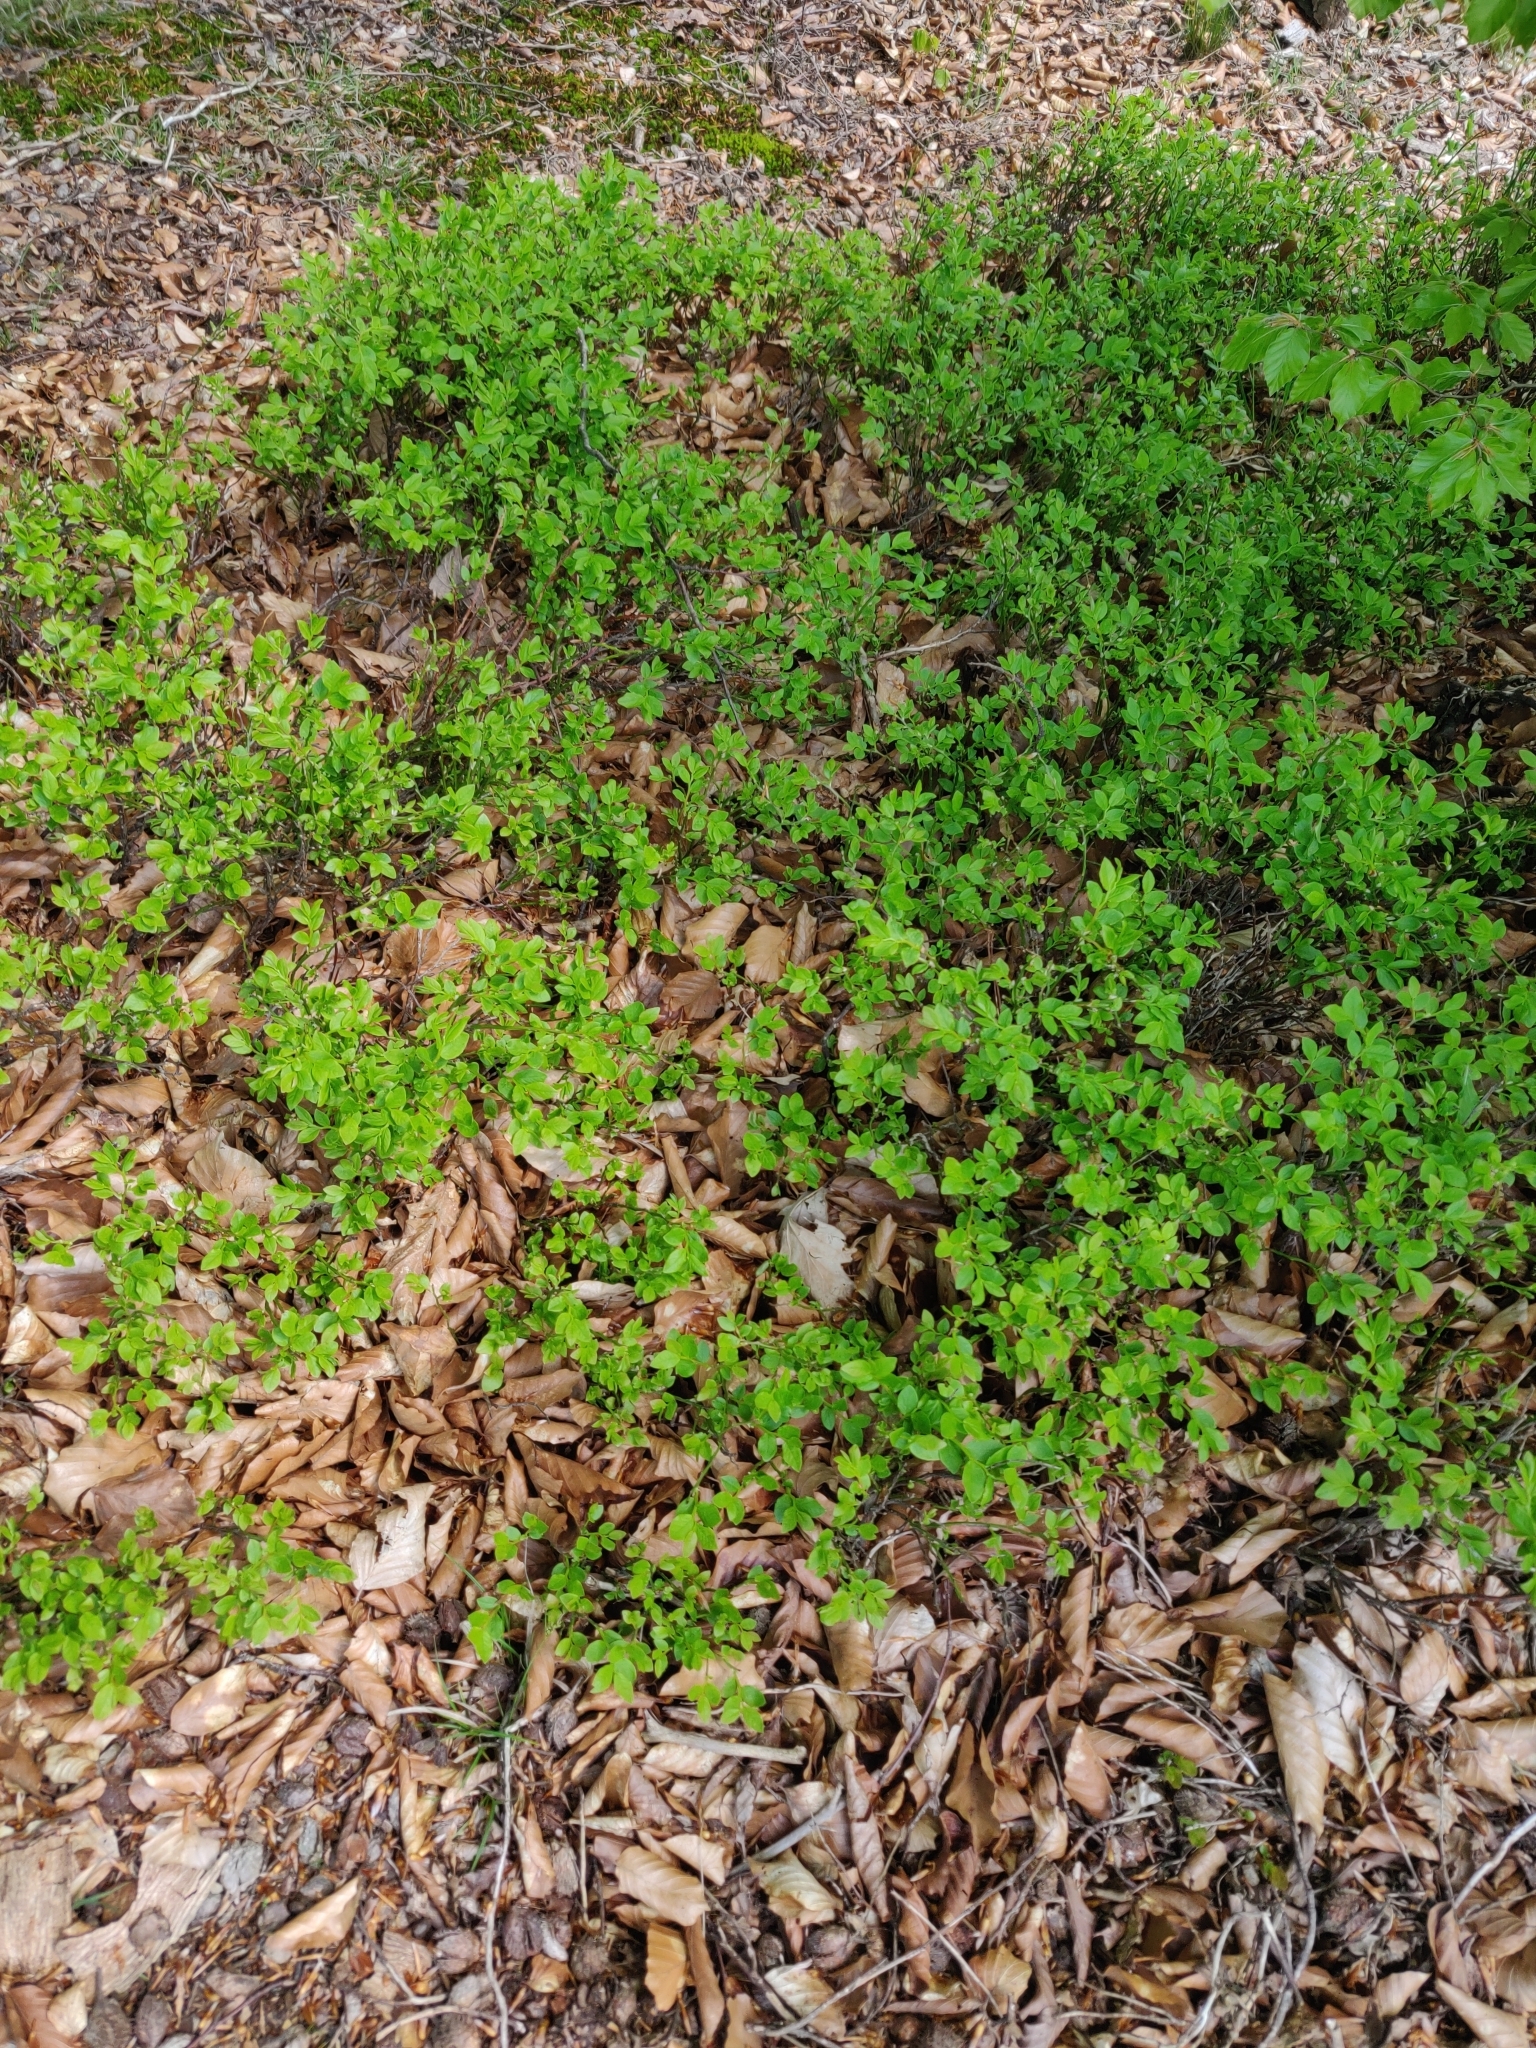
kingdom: Plantae
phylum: Tracheophyta
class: Magnoliopsida
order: Ericales
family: Ericaceae
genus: Vaccinium
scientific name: Vaccinium myrtillus
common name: Bilberry
